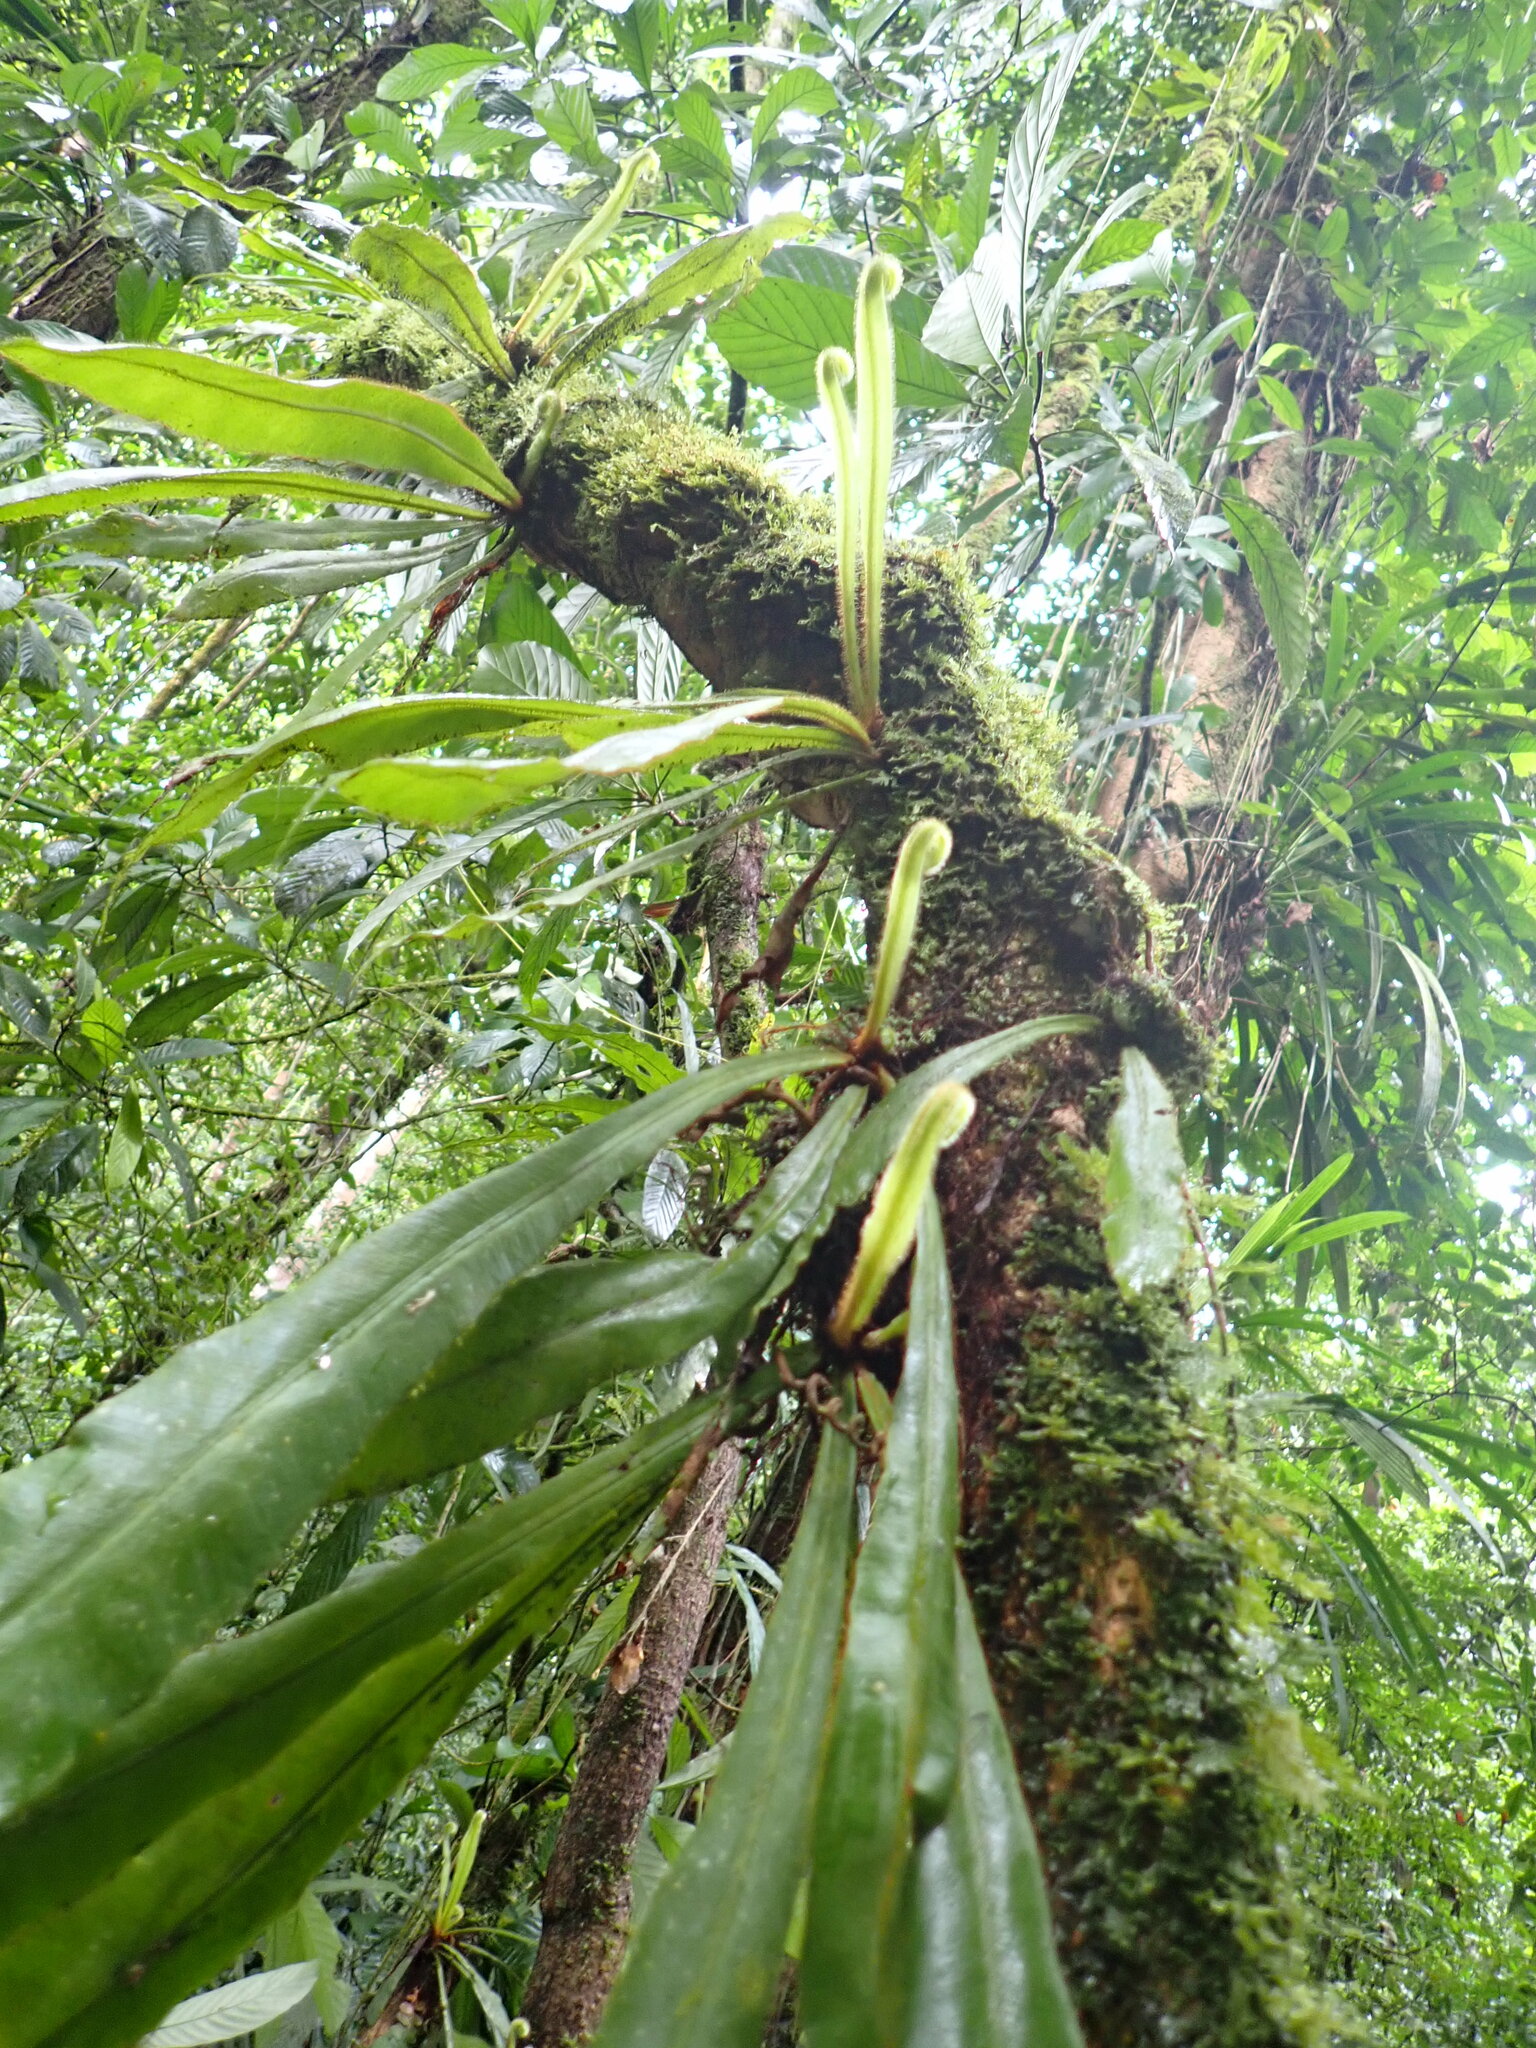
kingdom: Plantae
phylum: Tracheophyta
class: Polypodiopsida
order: Polypodiales
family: Dryopteridaceae
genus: Elaphoglossum
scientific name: Elaphoglossum raywaense
